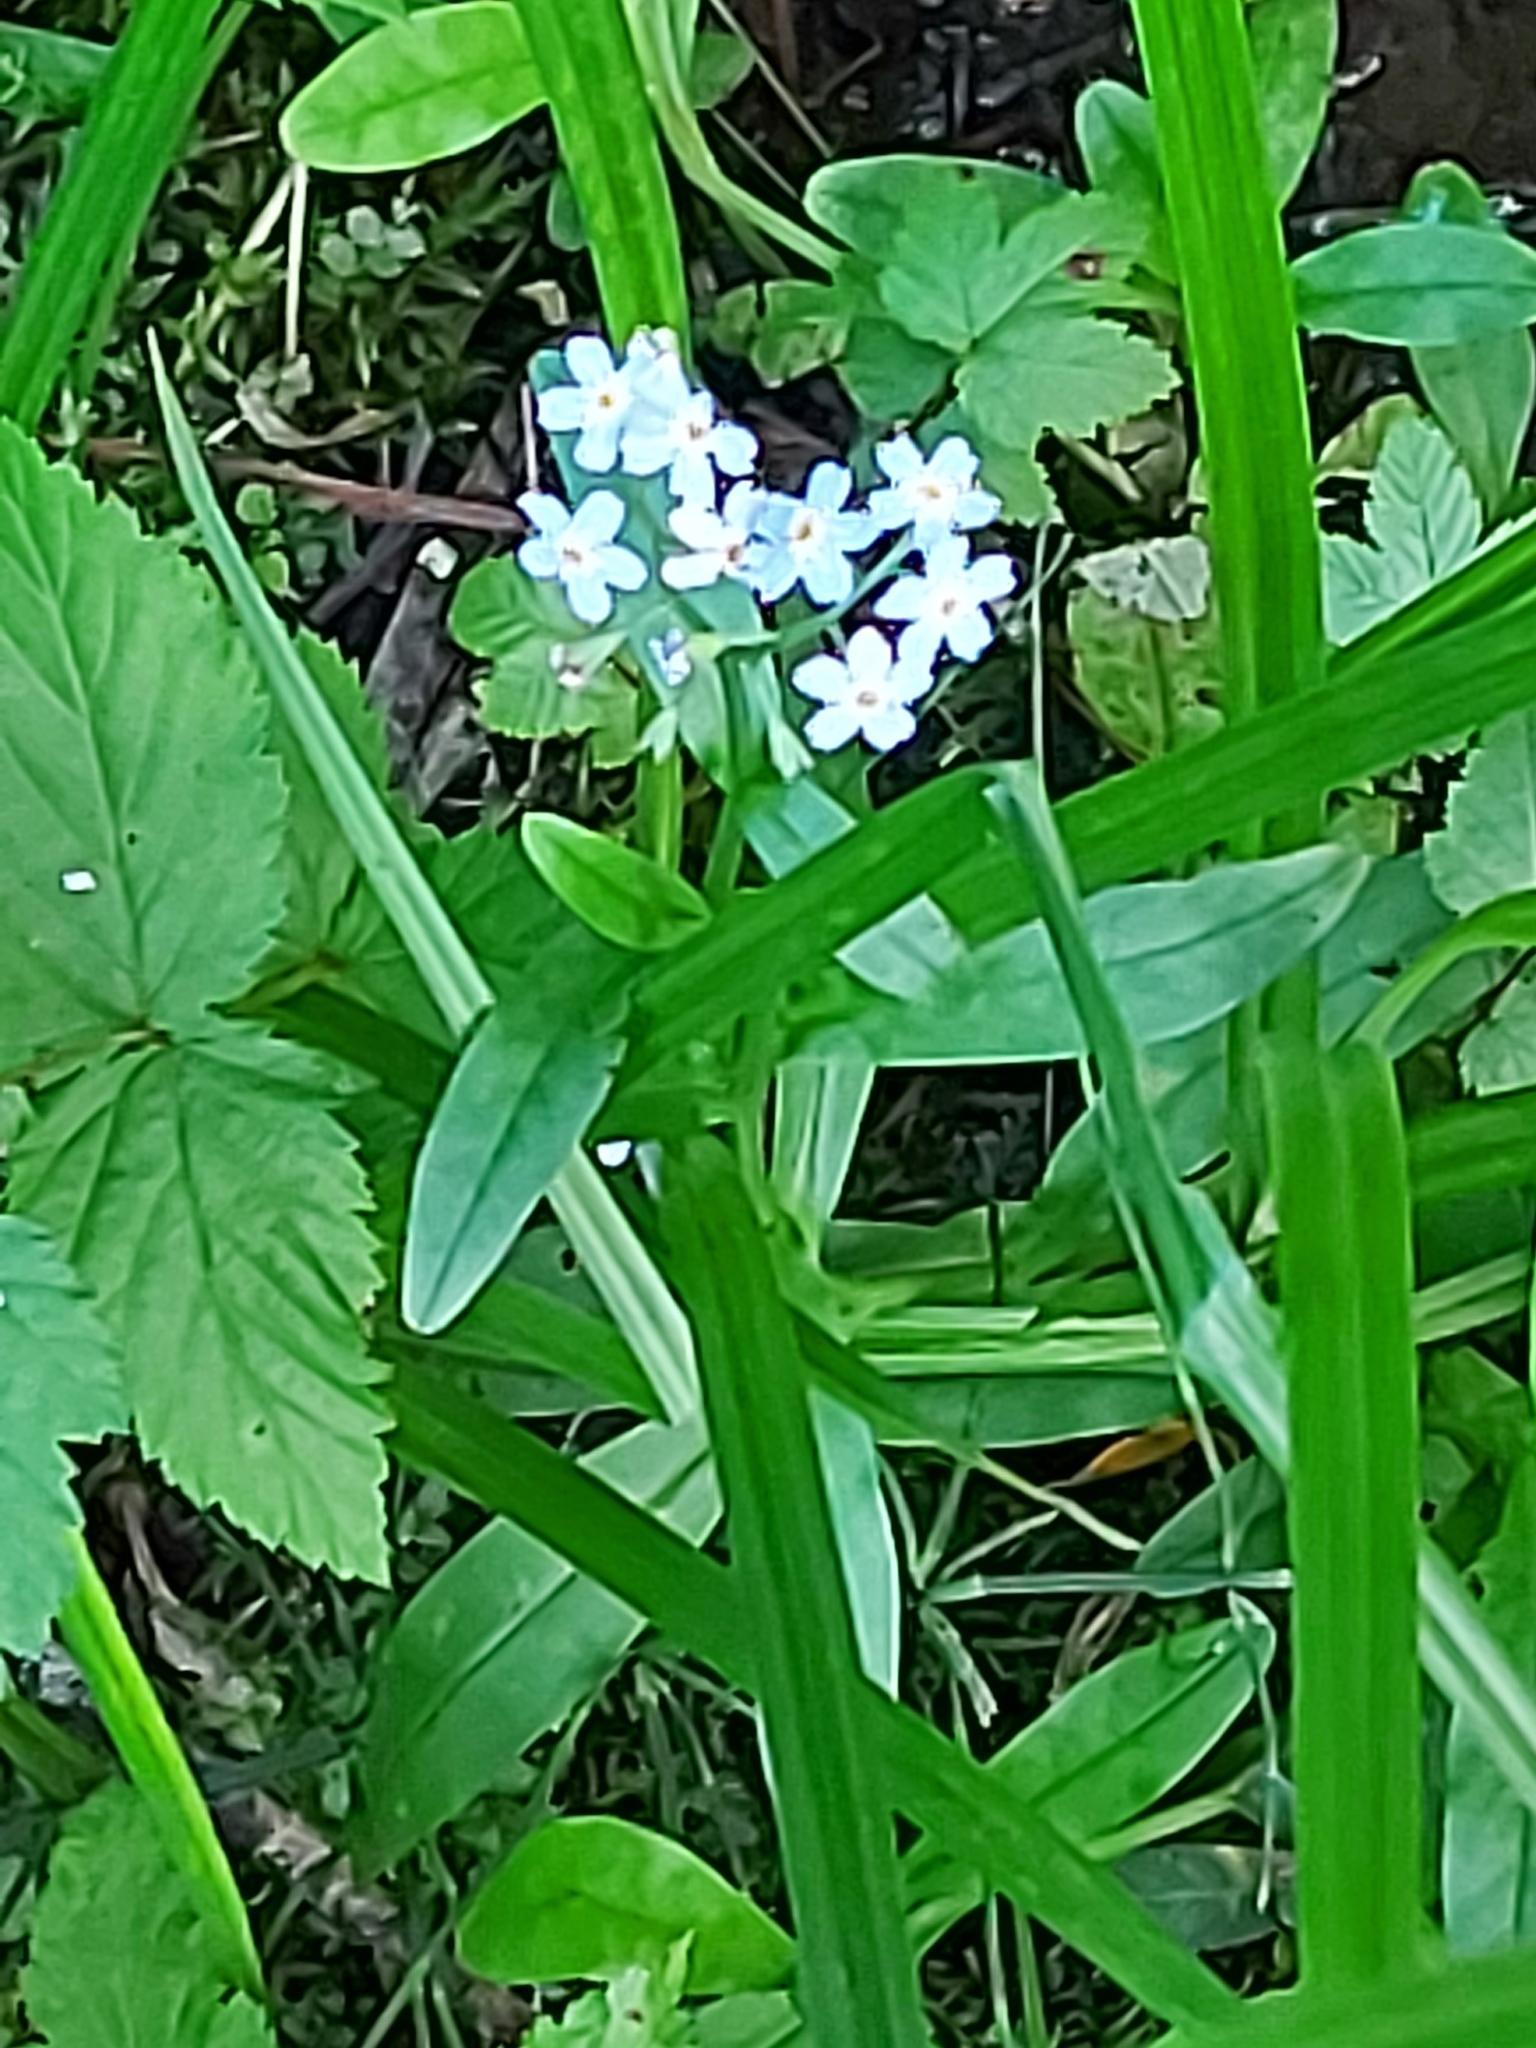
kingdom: Plantae
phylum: Tracheophyta
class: Magnoliopsida
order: Boraginales
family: Boraginaceae
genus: Myosotis
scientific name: Myosotis scorpioides
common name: Water forget-me-not
